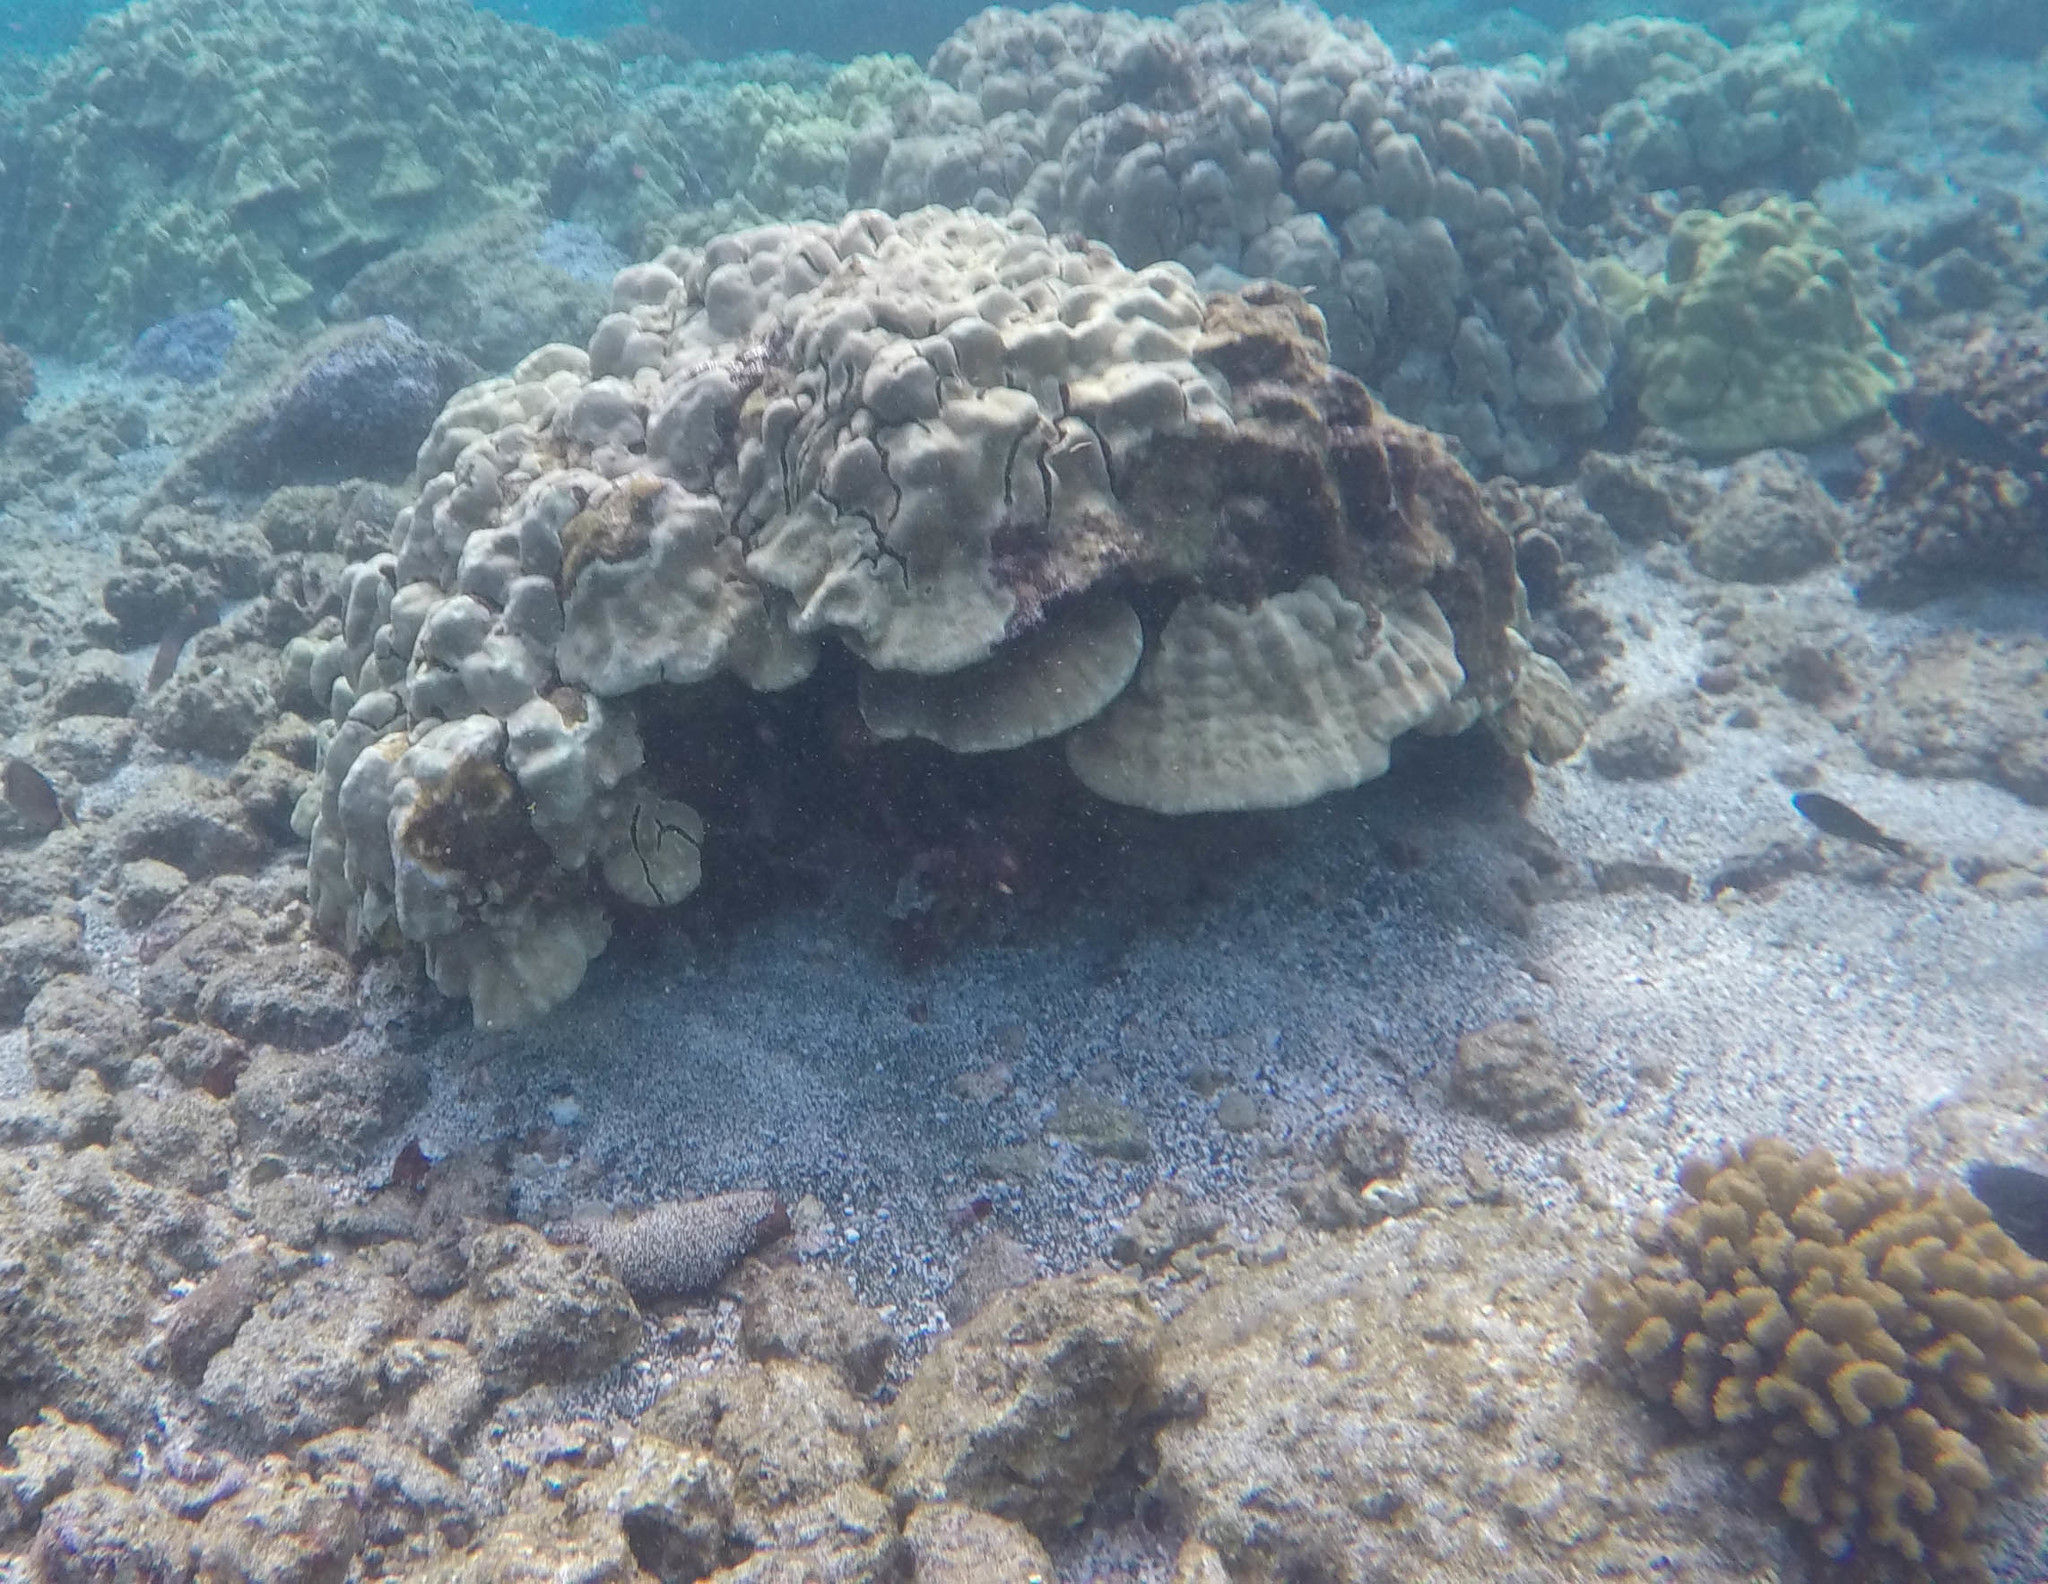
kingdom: Animalia
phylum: Cnidaria
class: Anthozoa
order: Scleractinia
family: Poritidae
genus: Porites
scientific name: Porites lobata
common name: Hump coral
